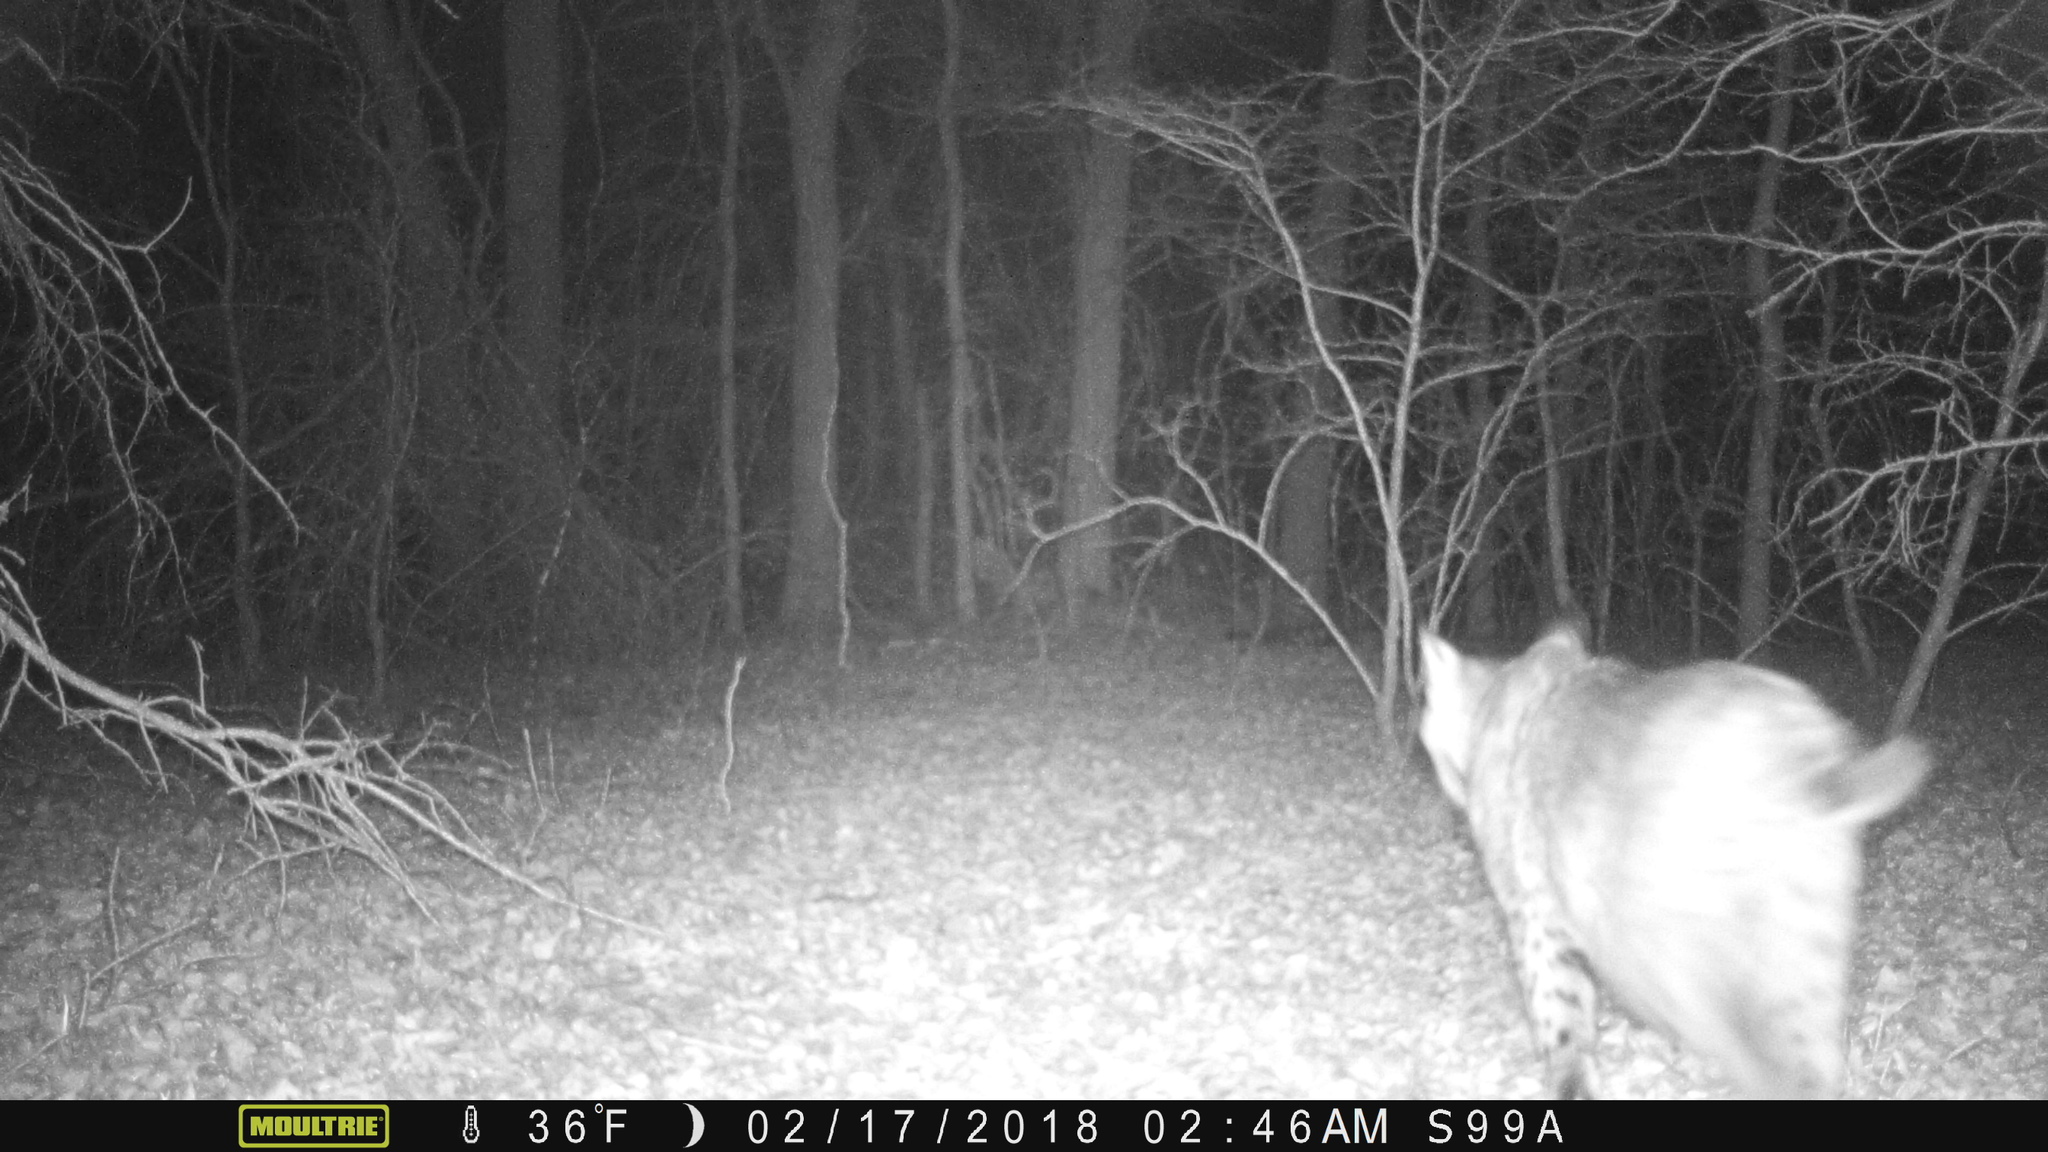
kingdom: Animalia
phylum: Chordata
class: Mammalia
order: Carnivora
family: Felidae
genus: Lynx
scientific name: Lynx rufus
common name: Bobcat
